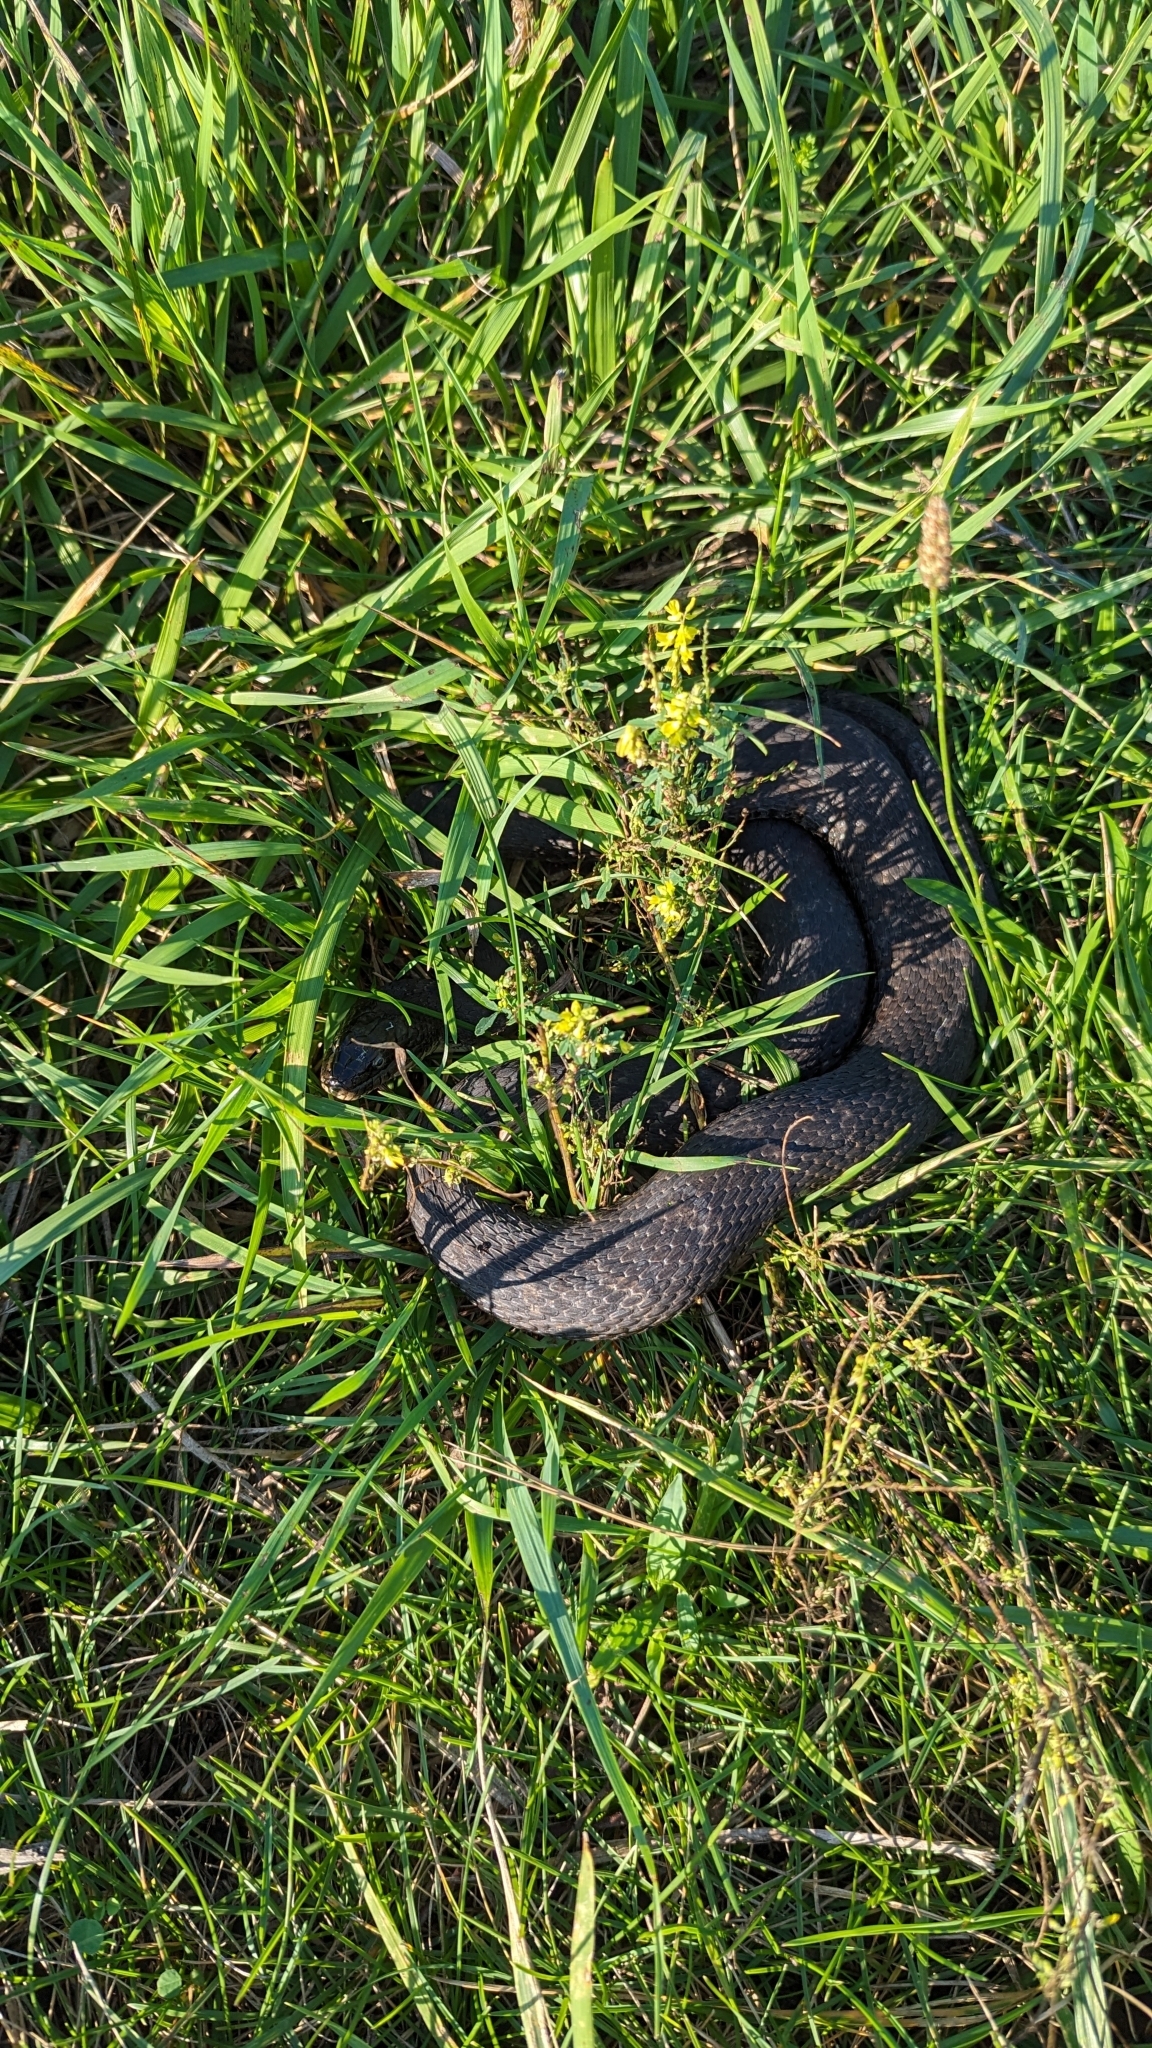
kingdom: Animalia
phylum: Chordata
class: Squamata
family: Colubridae
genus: Nerodia
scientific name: Nerodia sipedon
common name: Northern water snake
